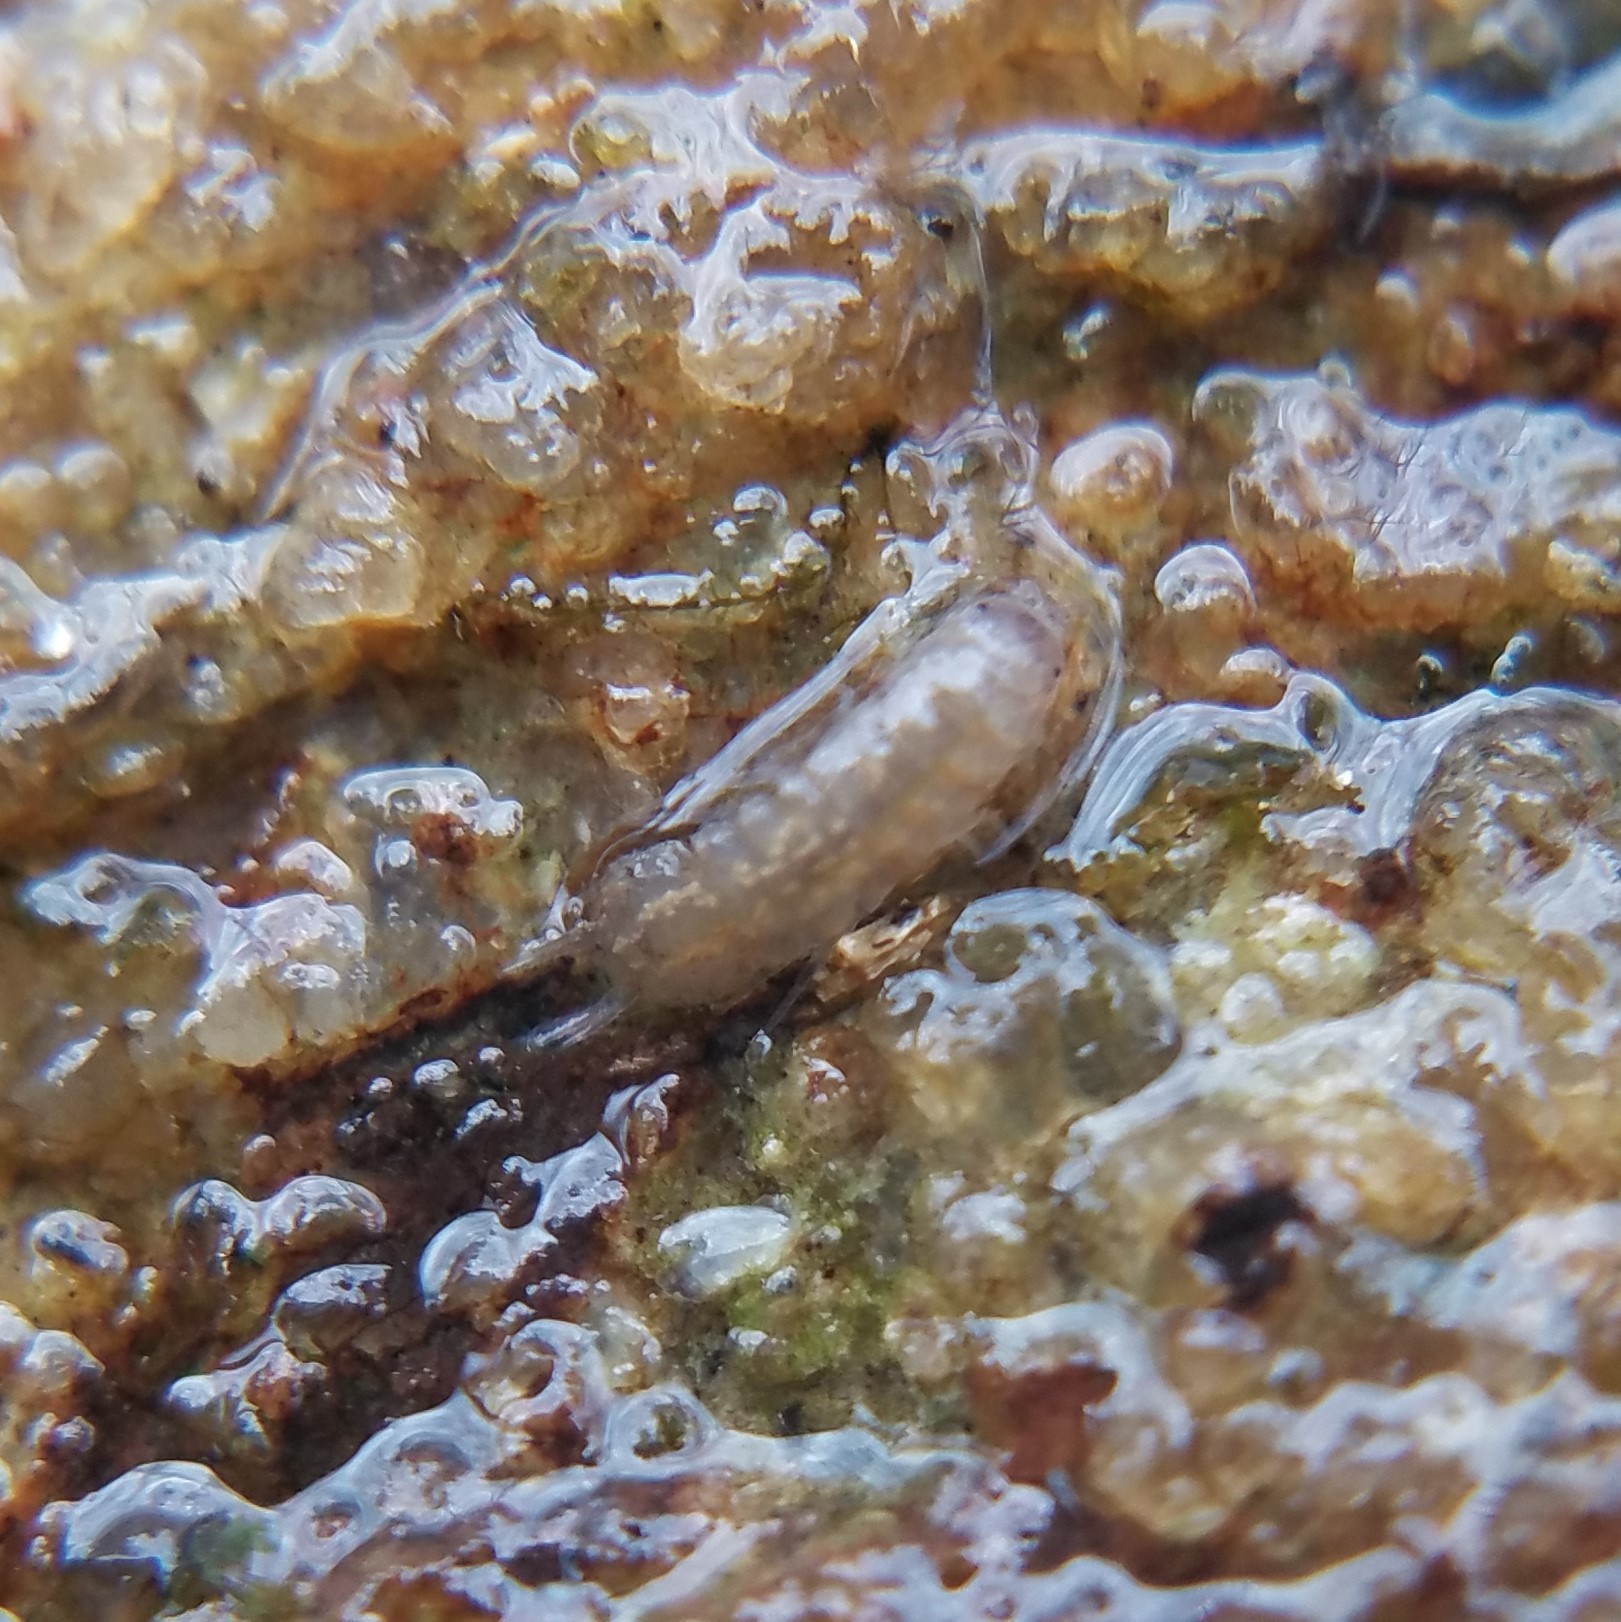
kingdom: Animalia
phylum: Arthropoda
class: Malacostraca
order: Isopoda
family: Asellidae
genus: Caecidotea
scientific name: Caecidotea
